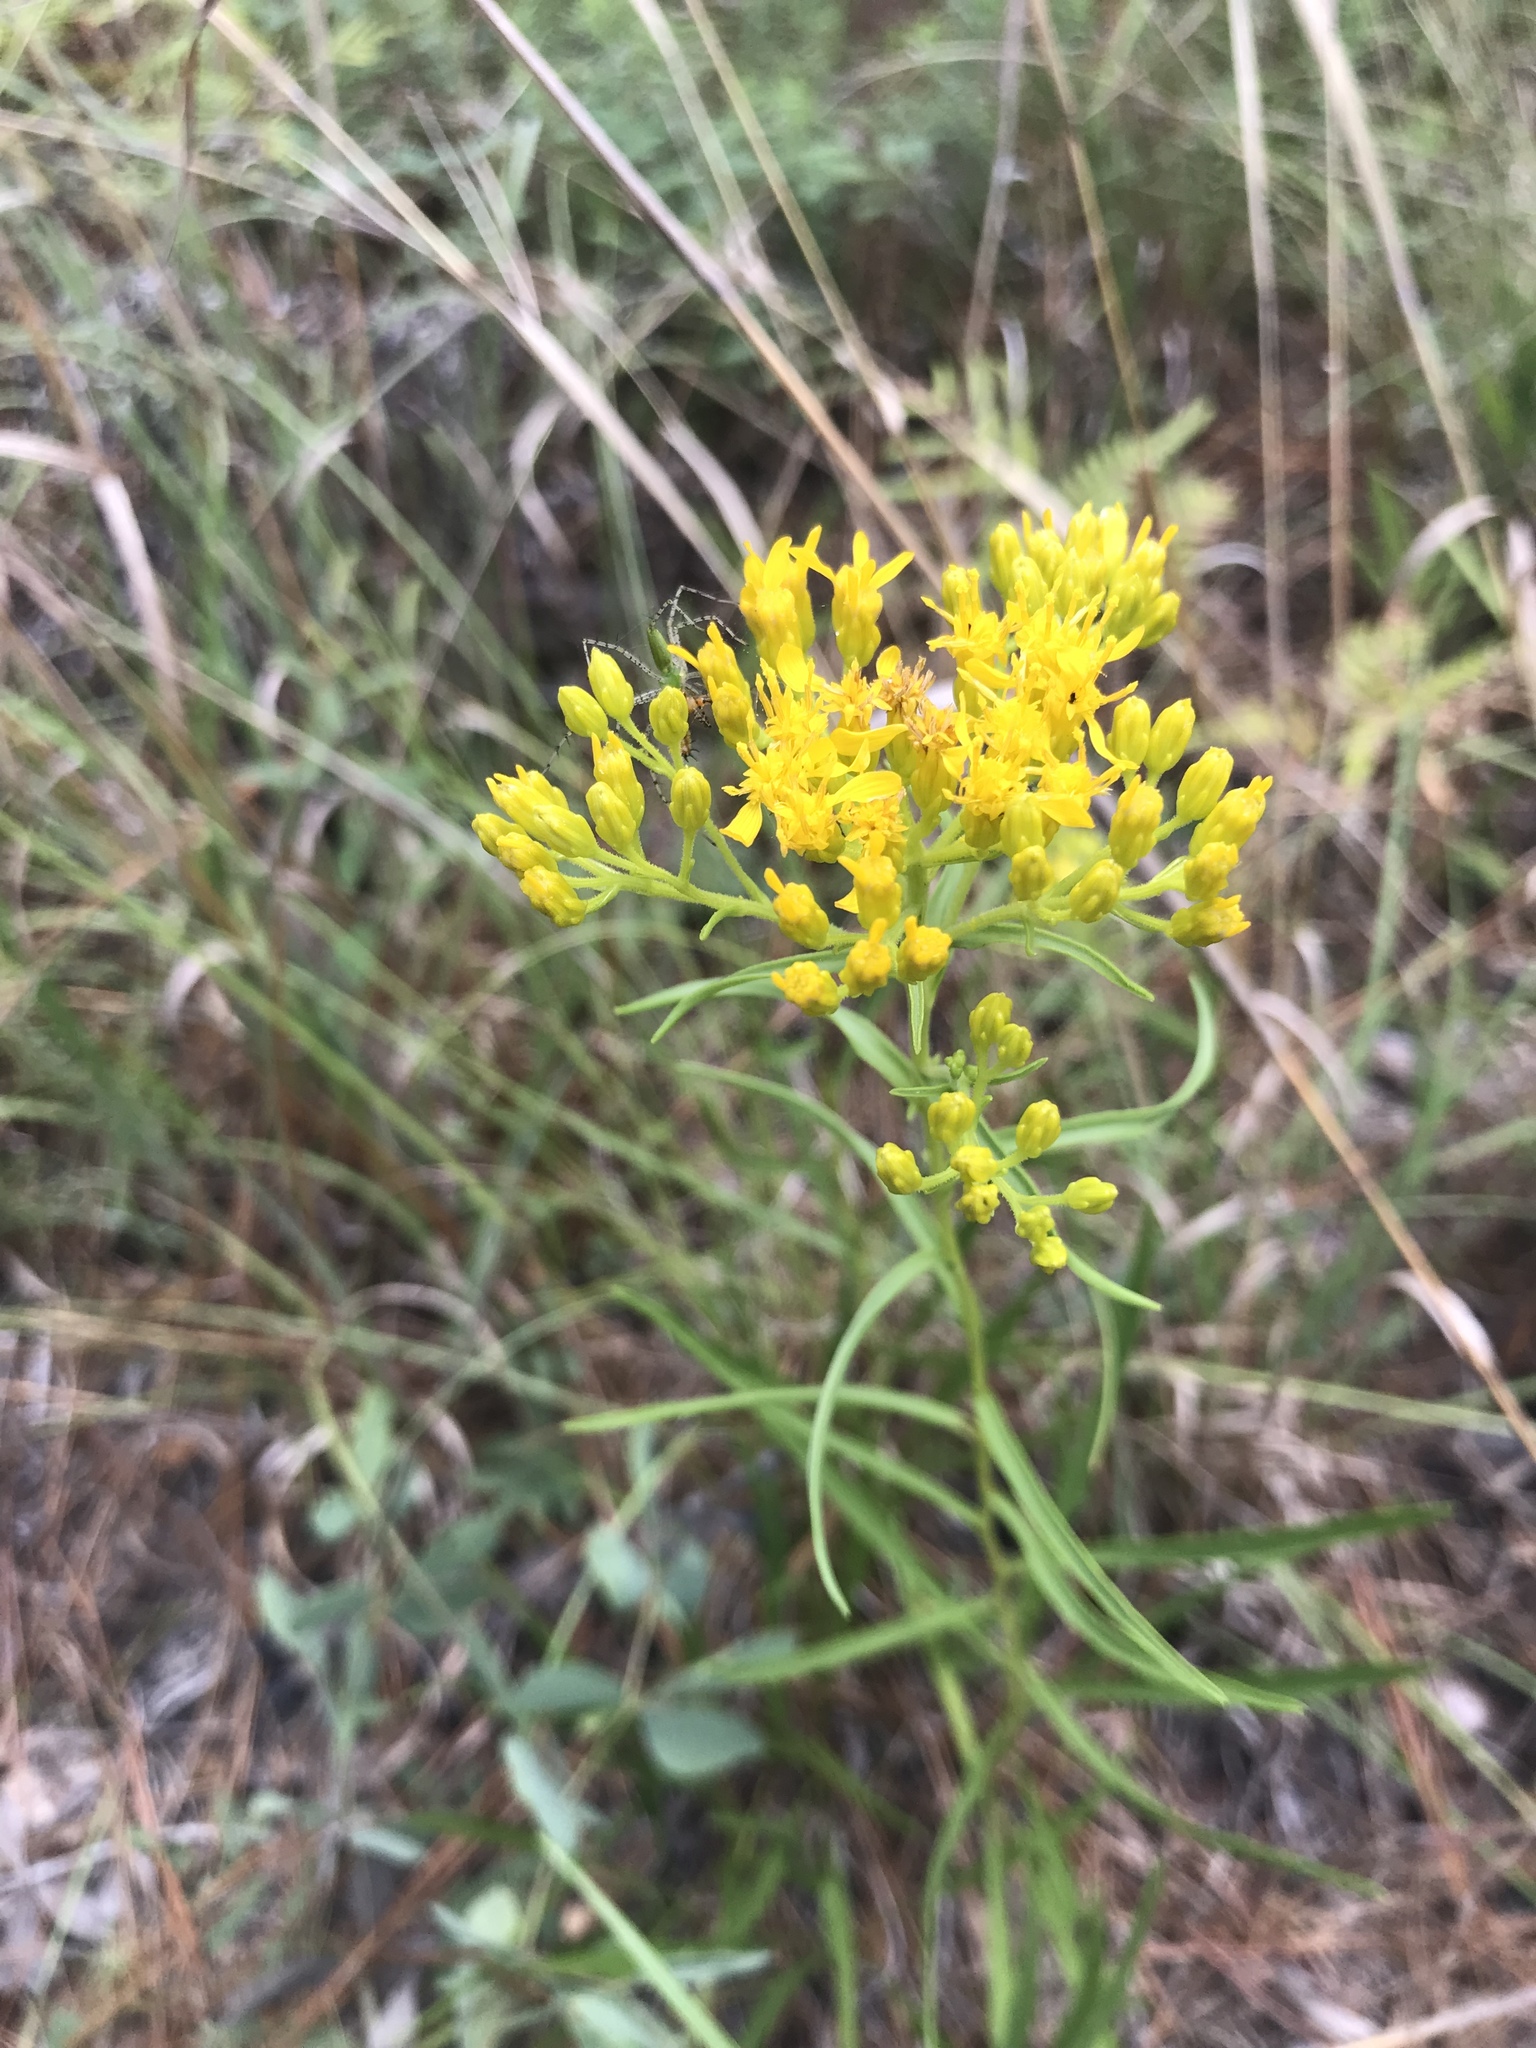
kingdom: Plantae
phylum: Tracheophyta
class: Magnoliopsida
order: Asterales
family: Asteraceae
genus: Solidago
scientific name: Solidago nitida
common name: Shiny goldenrod
